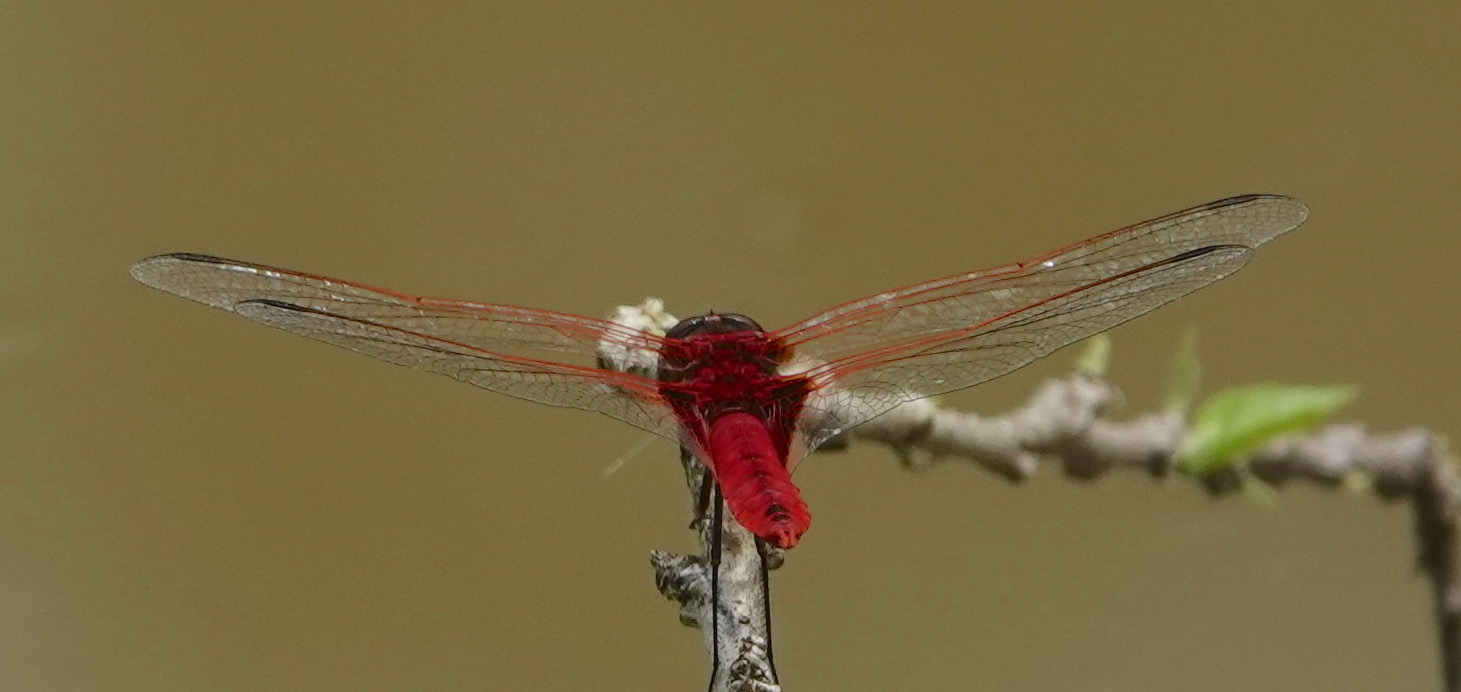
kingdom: Animalia
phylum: Arthropoda
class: Insecta
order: Odonata
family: Libellulidae
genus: Urothemis
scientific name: Urothemis signata
